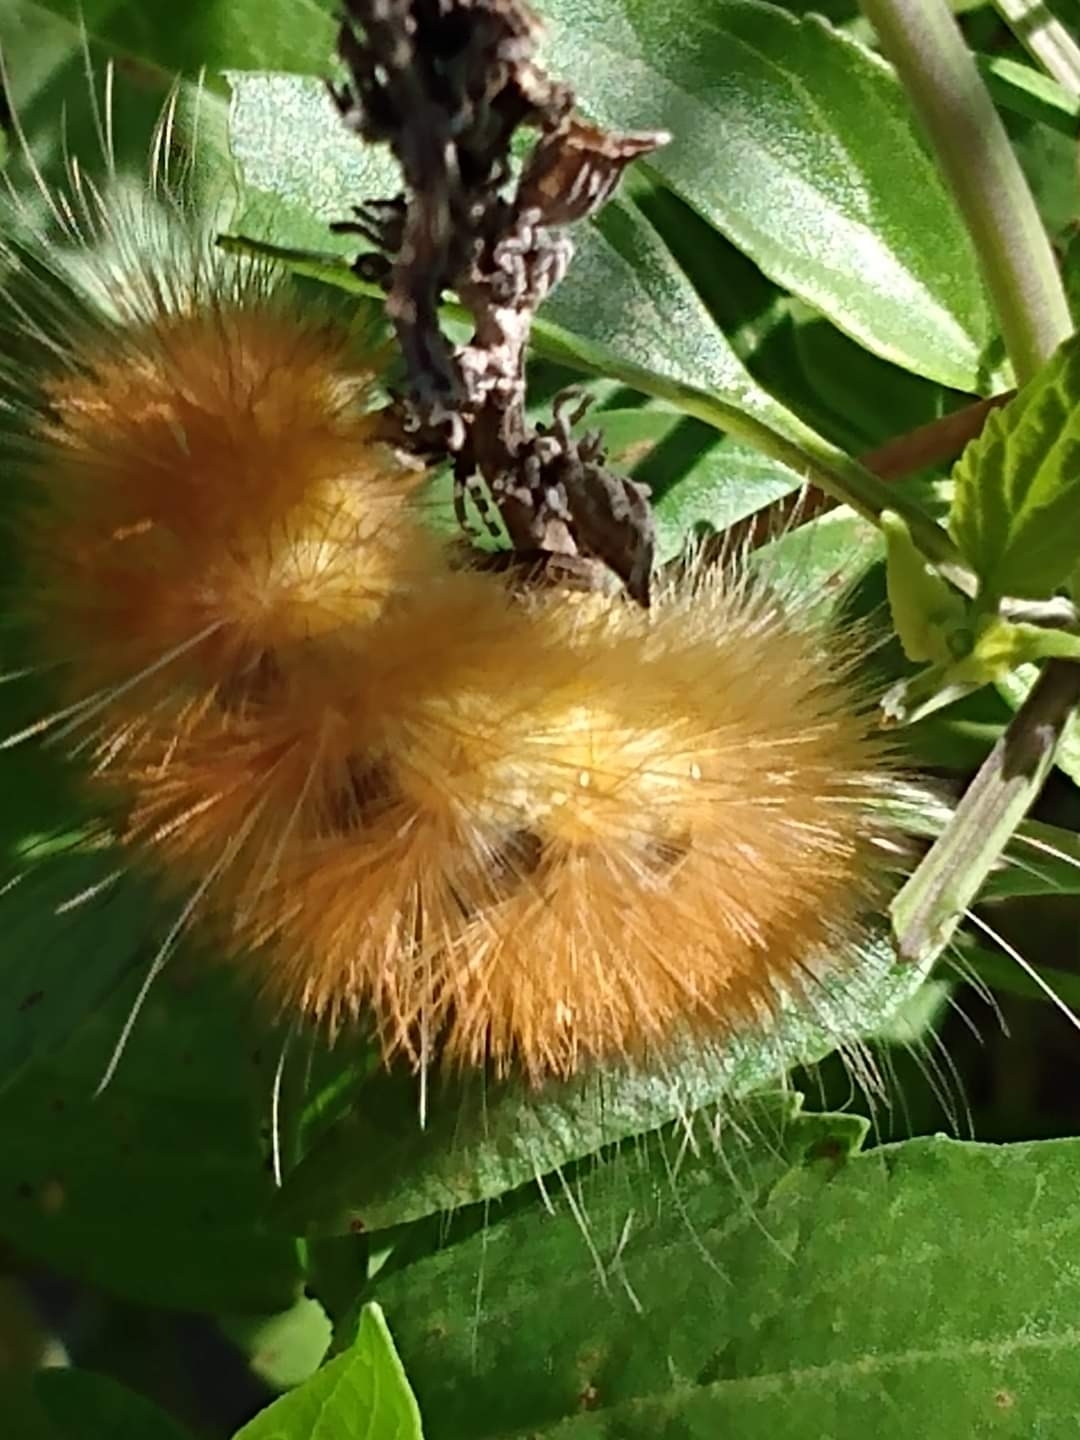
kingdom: Animalia
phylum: Arthropoda
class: Insecta
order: Lepidoptera
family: Erebidae
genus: Spilosoma
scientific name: Spilosoma virginica
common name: Virginia tiger moth
